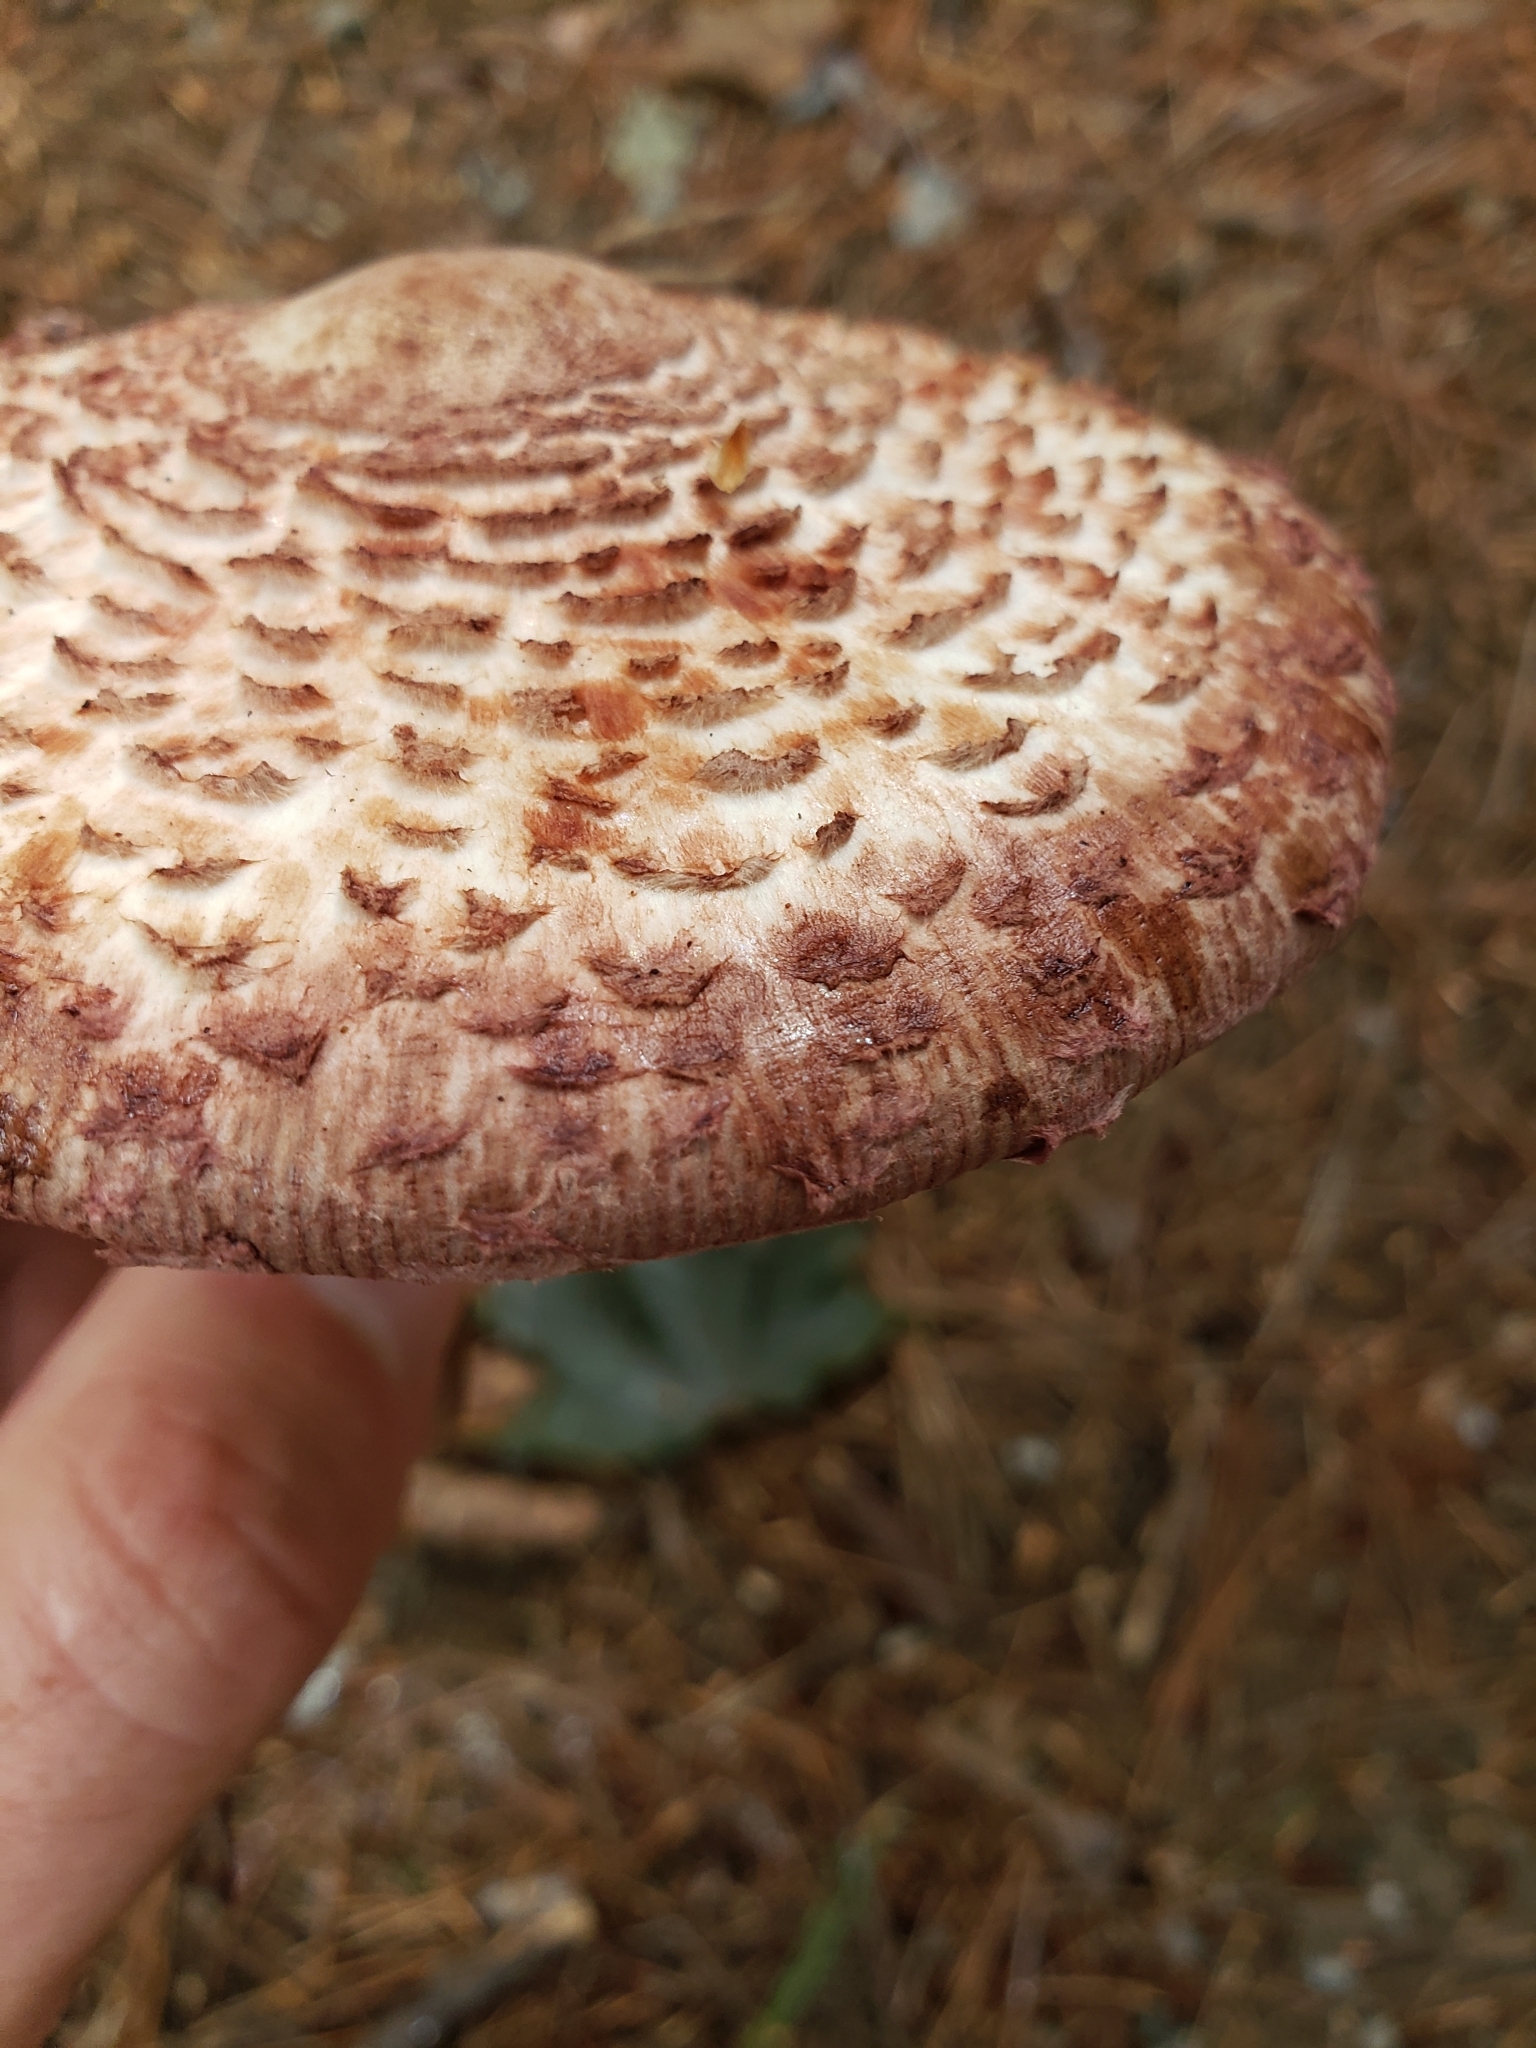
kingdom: Fungi
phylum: Basidiomycota
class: Agaricomycetes
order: Agaricales
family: Agaricaceae
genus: Leucoagaricus
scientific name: Leucoagaricus americanus
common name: Reddening lepiota
